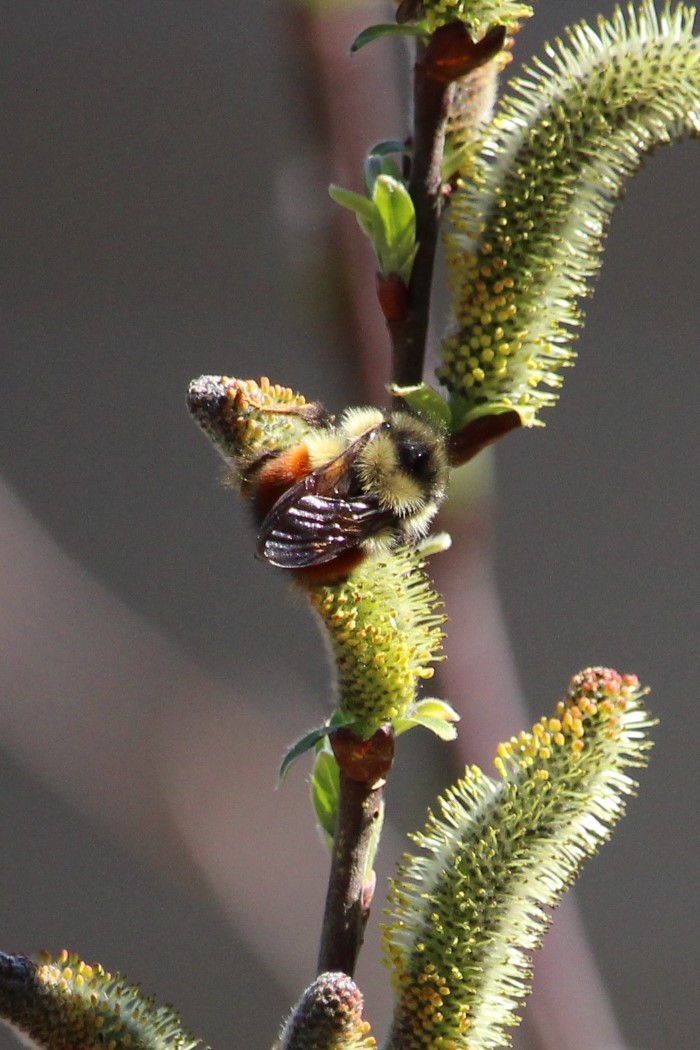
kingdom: Animalia
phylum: Arthropoda
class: Insecta
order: Hymenoptera
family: Apidae
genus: Bombus
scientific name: Bombus melanopygus
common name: Black tail bumble bee
